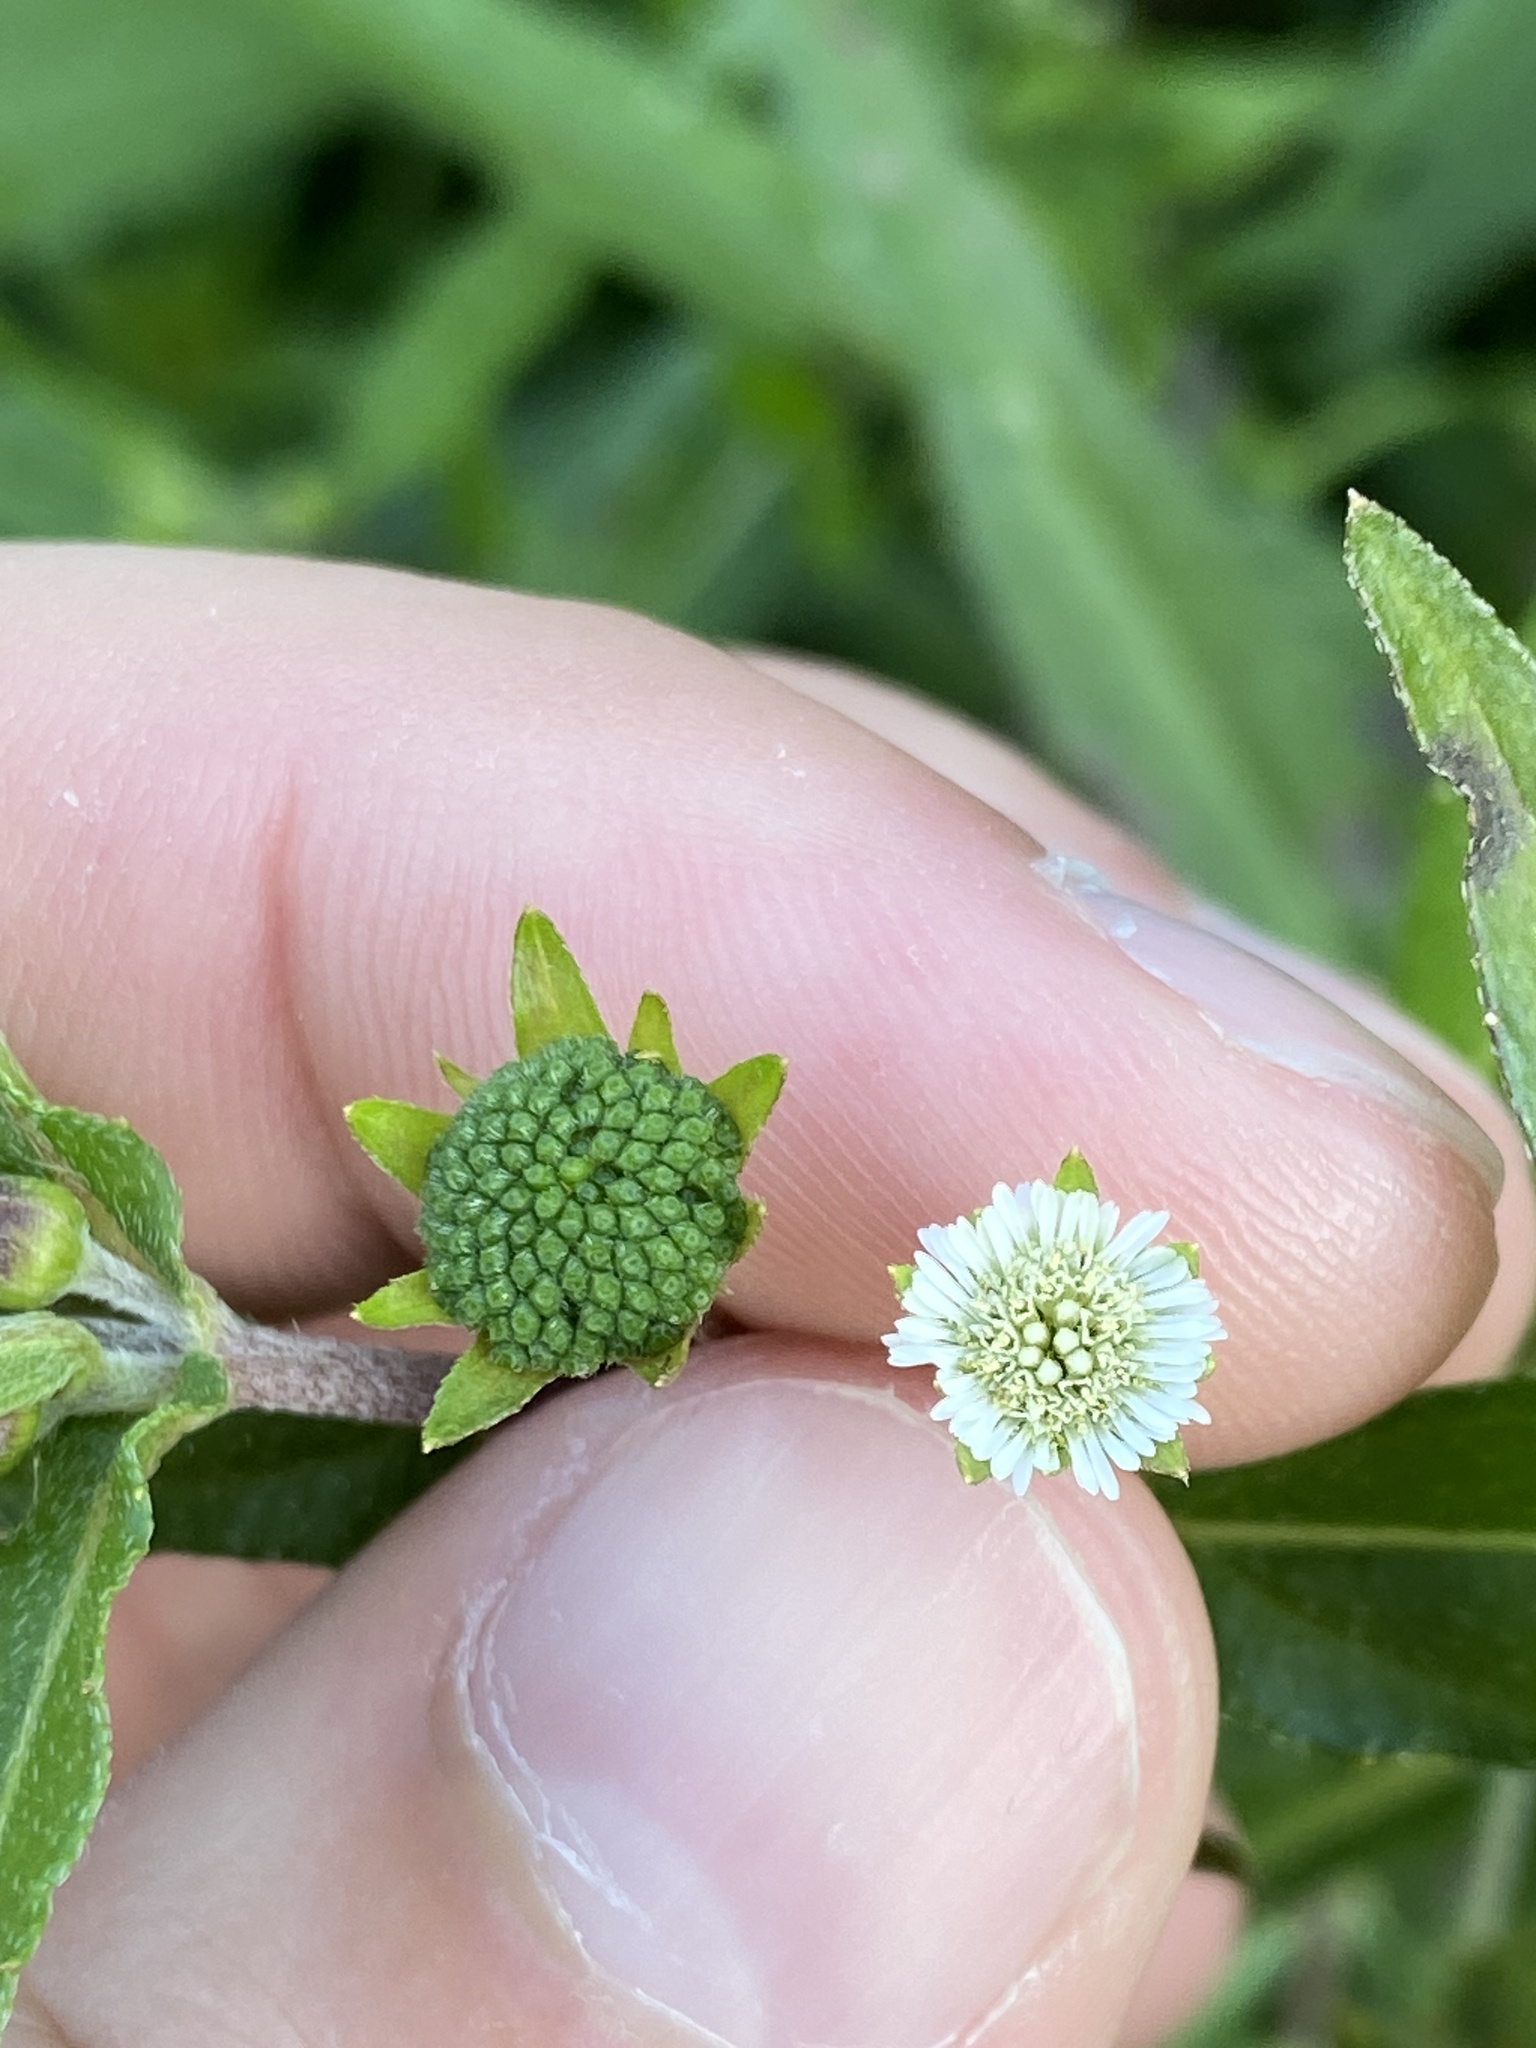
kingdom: Plantae
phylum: Tracheophyta
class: Magnoliopsida
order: Asterales
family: Asteraceae
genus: Eclipta
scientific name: Eclipta prostrata
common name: False daisy
